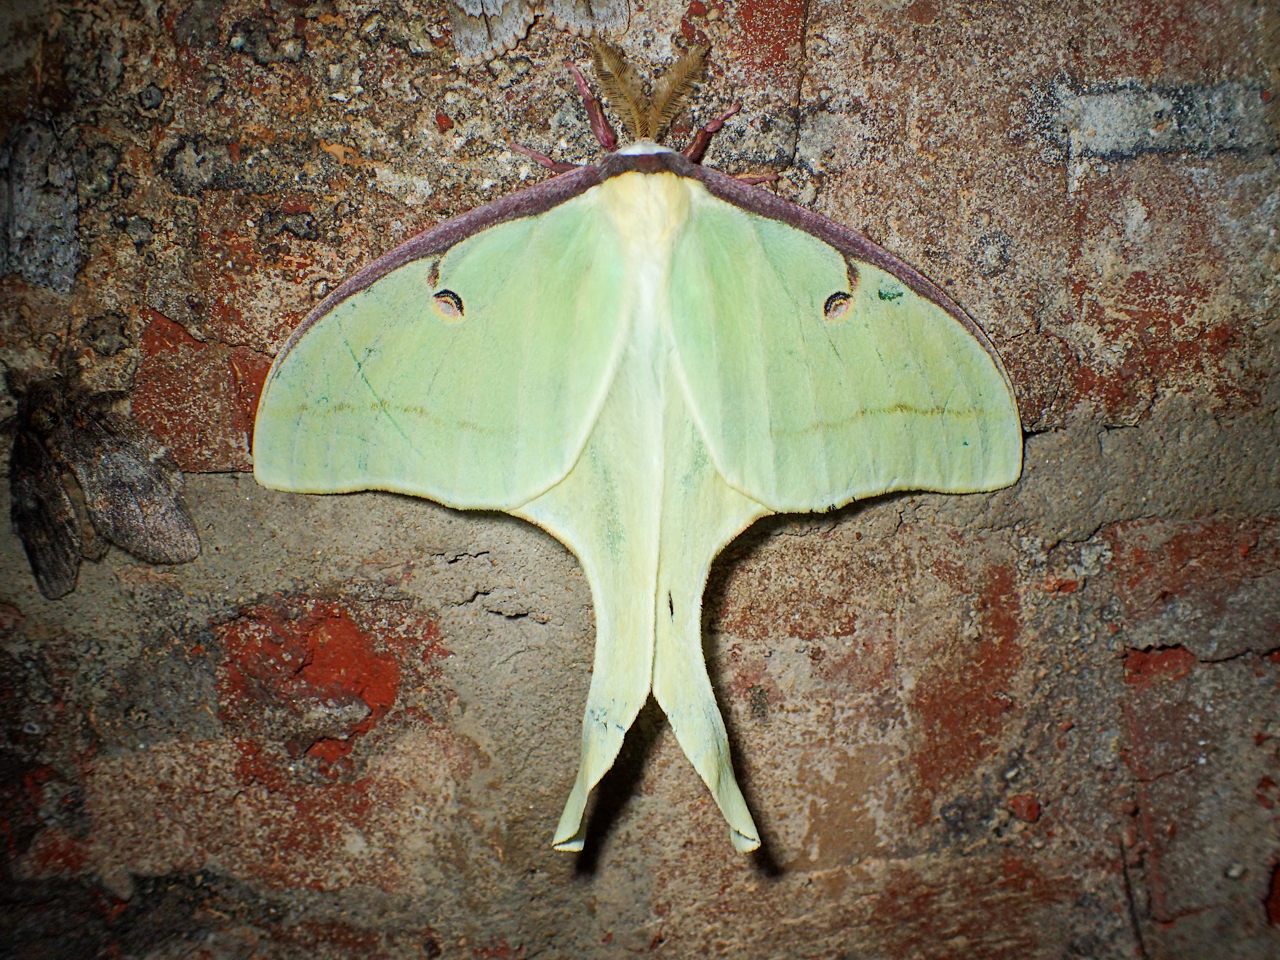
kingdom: Animalia
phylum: Arthropoda
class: Insecta
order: Lepidoptera
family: Saturniidae
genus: Actias
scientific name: Actias luna
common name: Luna moth
